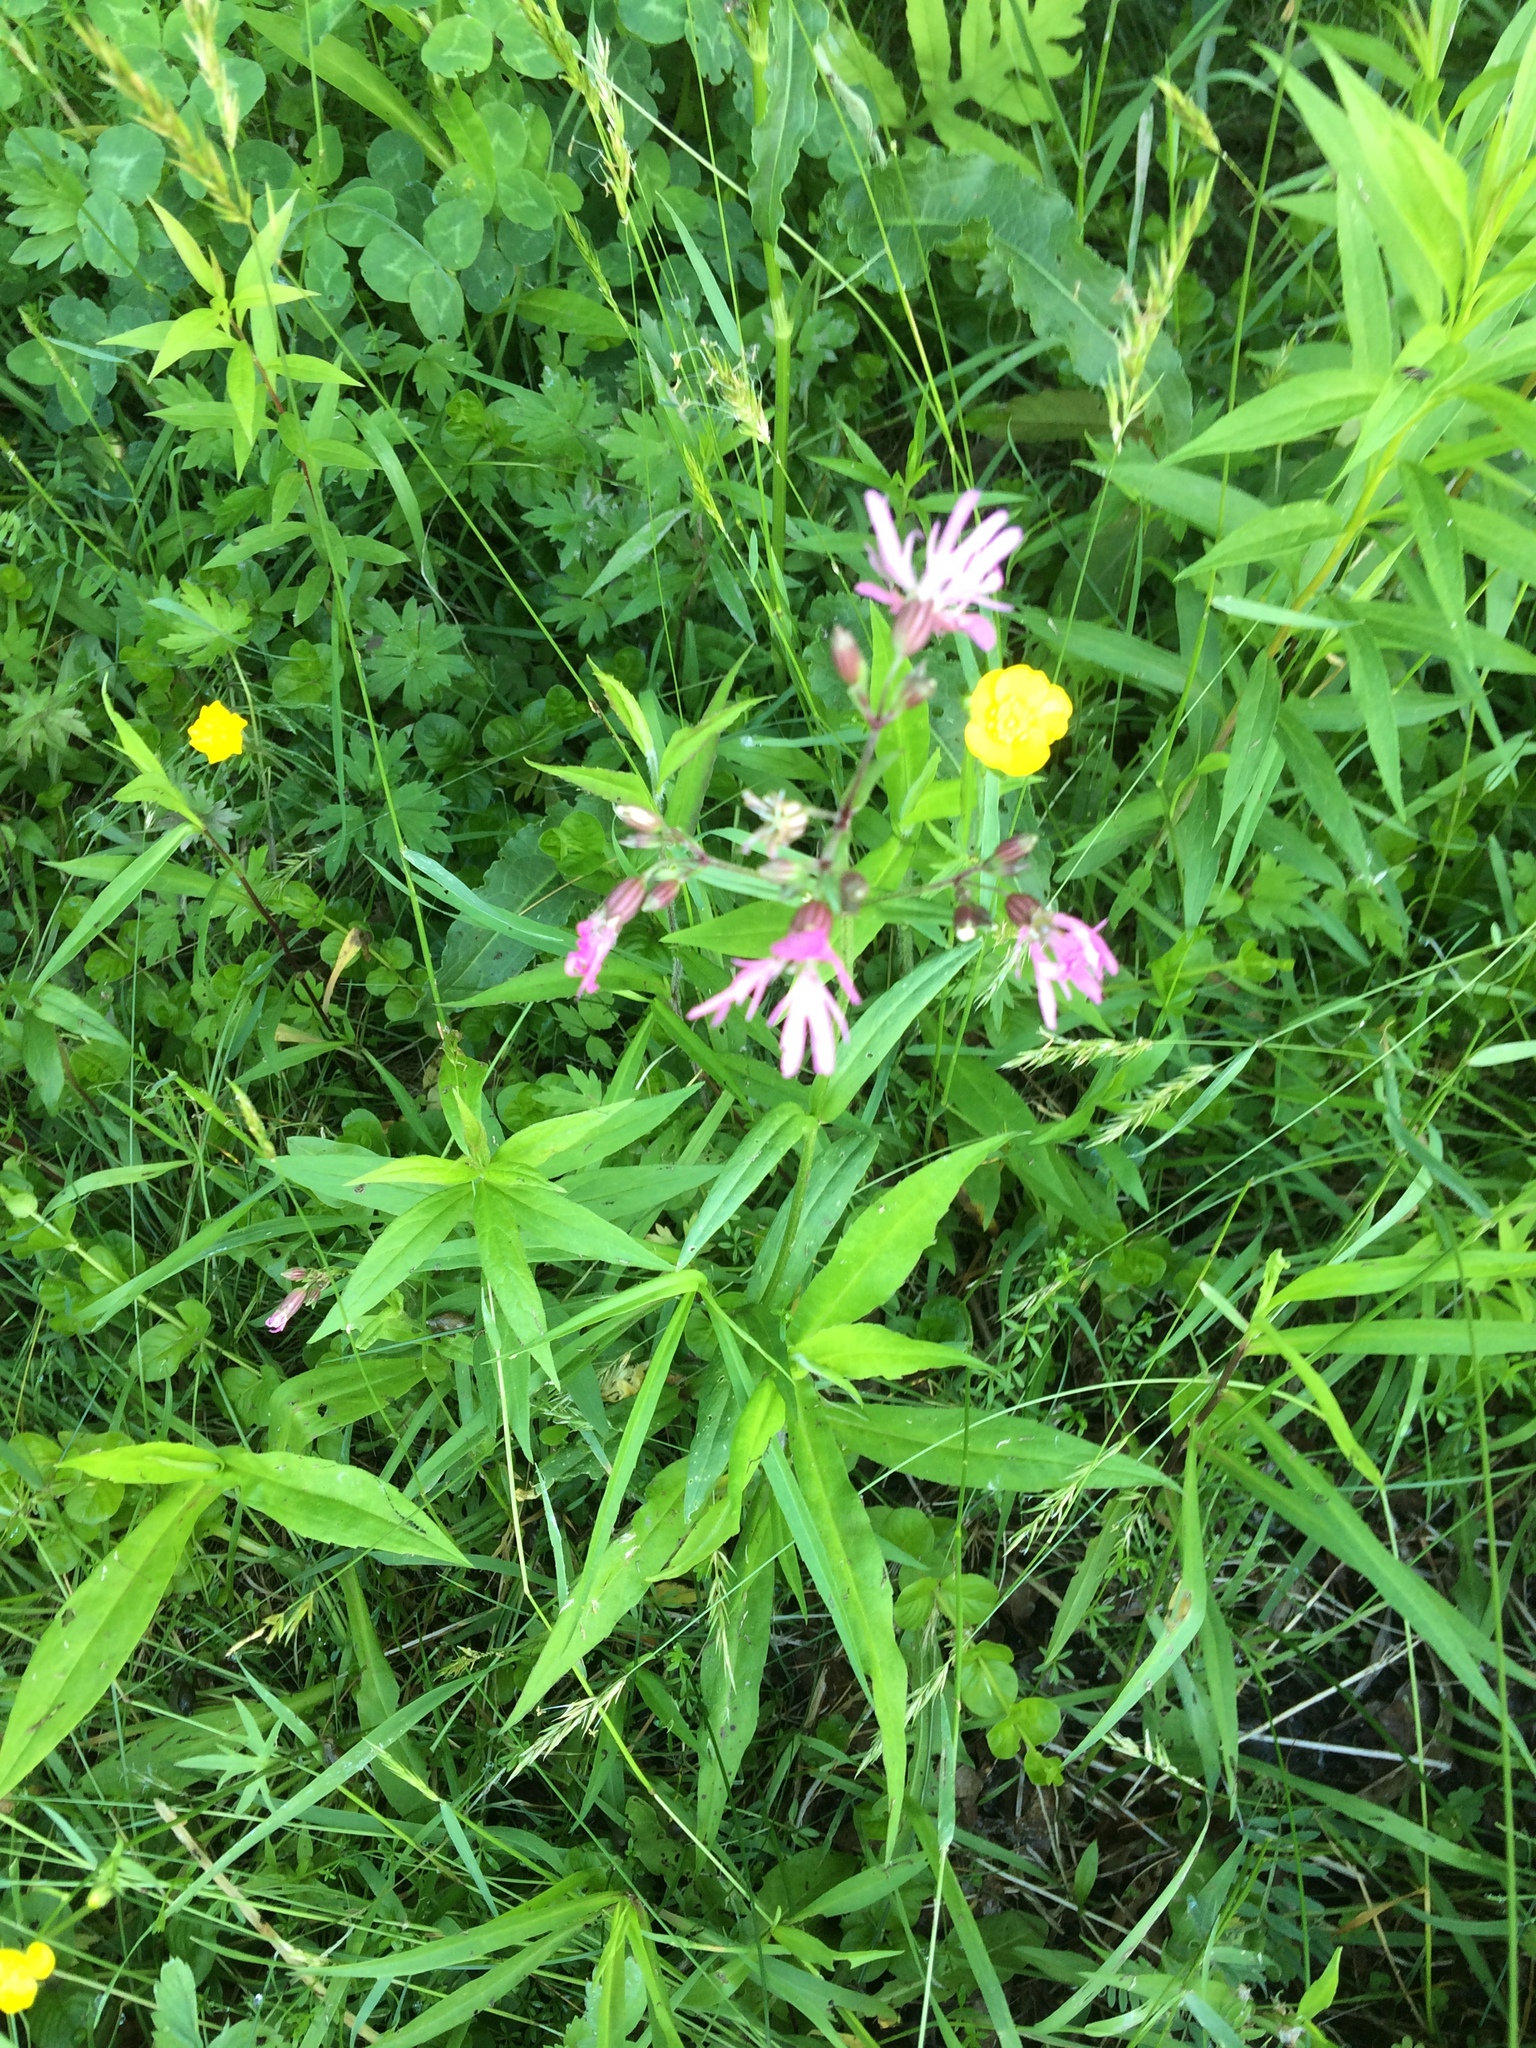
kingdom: Plantae
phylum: Tracheophyta
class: Magnoliopsida
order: Caryophyllales
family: Caryophyllaceae
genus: Silene
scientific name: Silene flos-cuculi
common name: Ragged-robin
